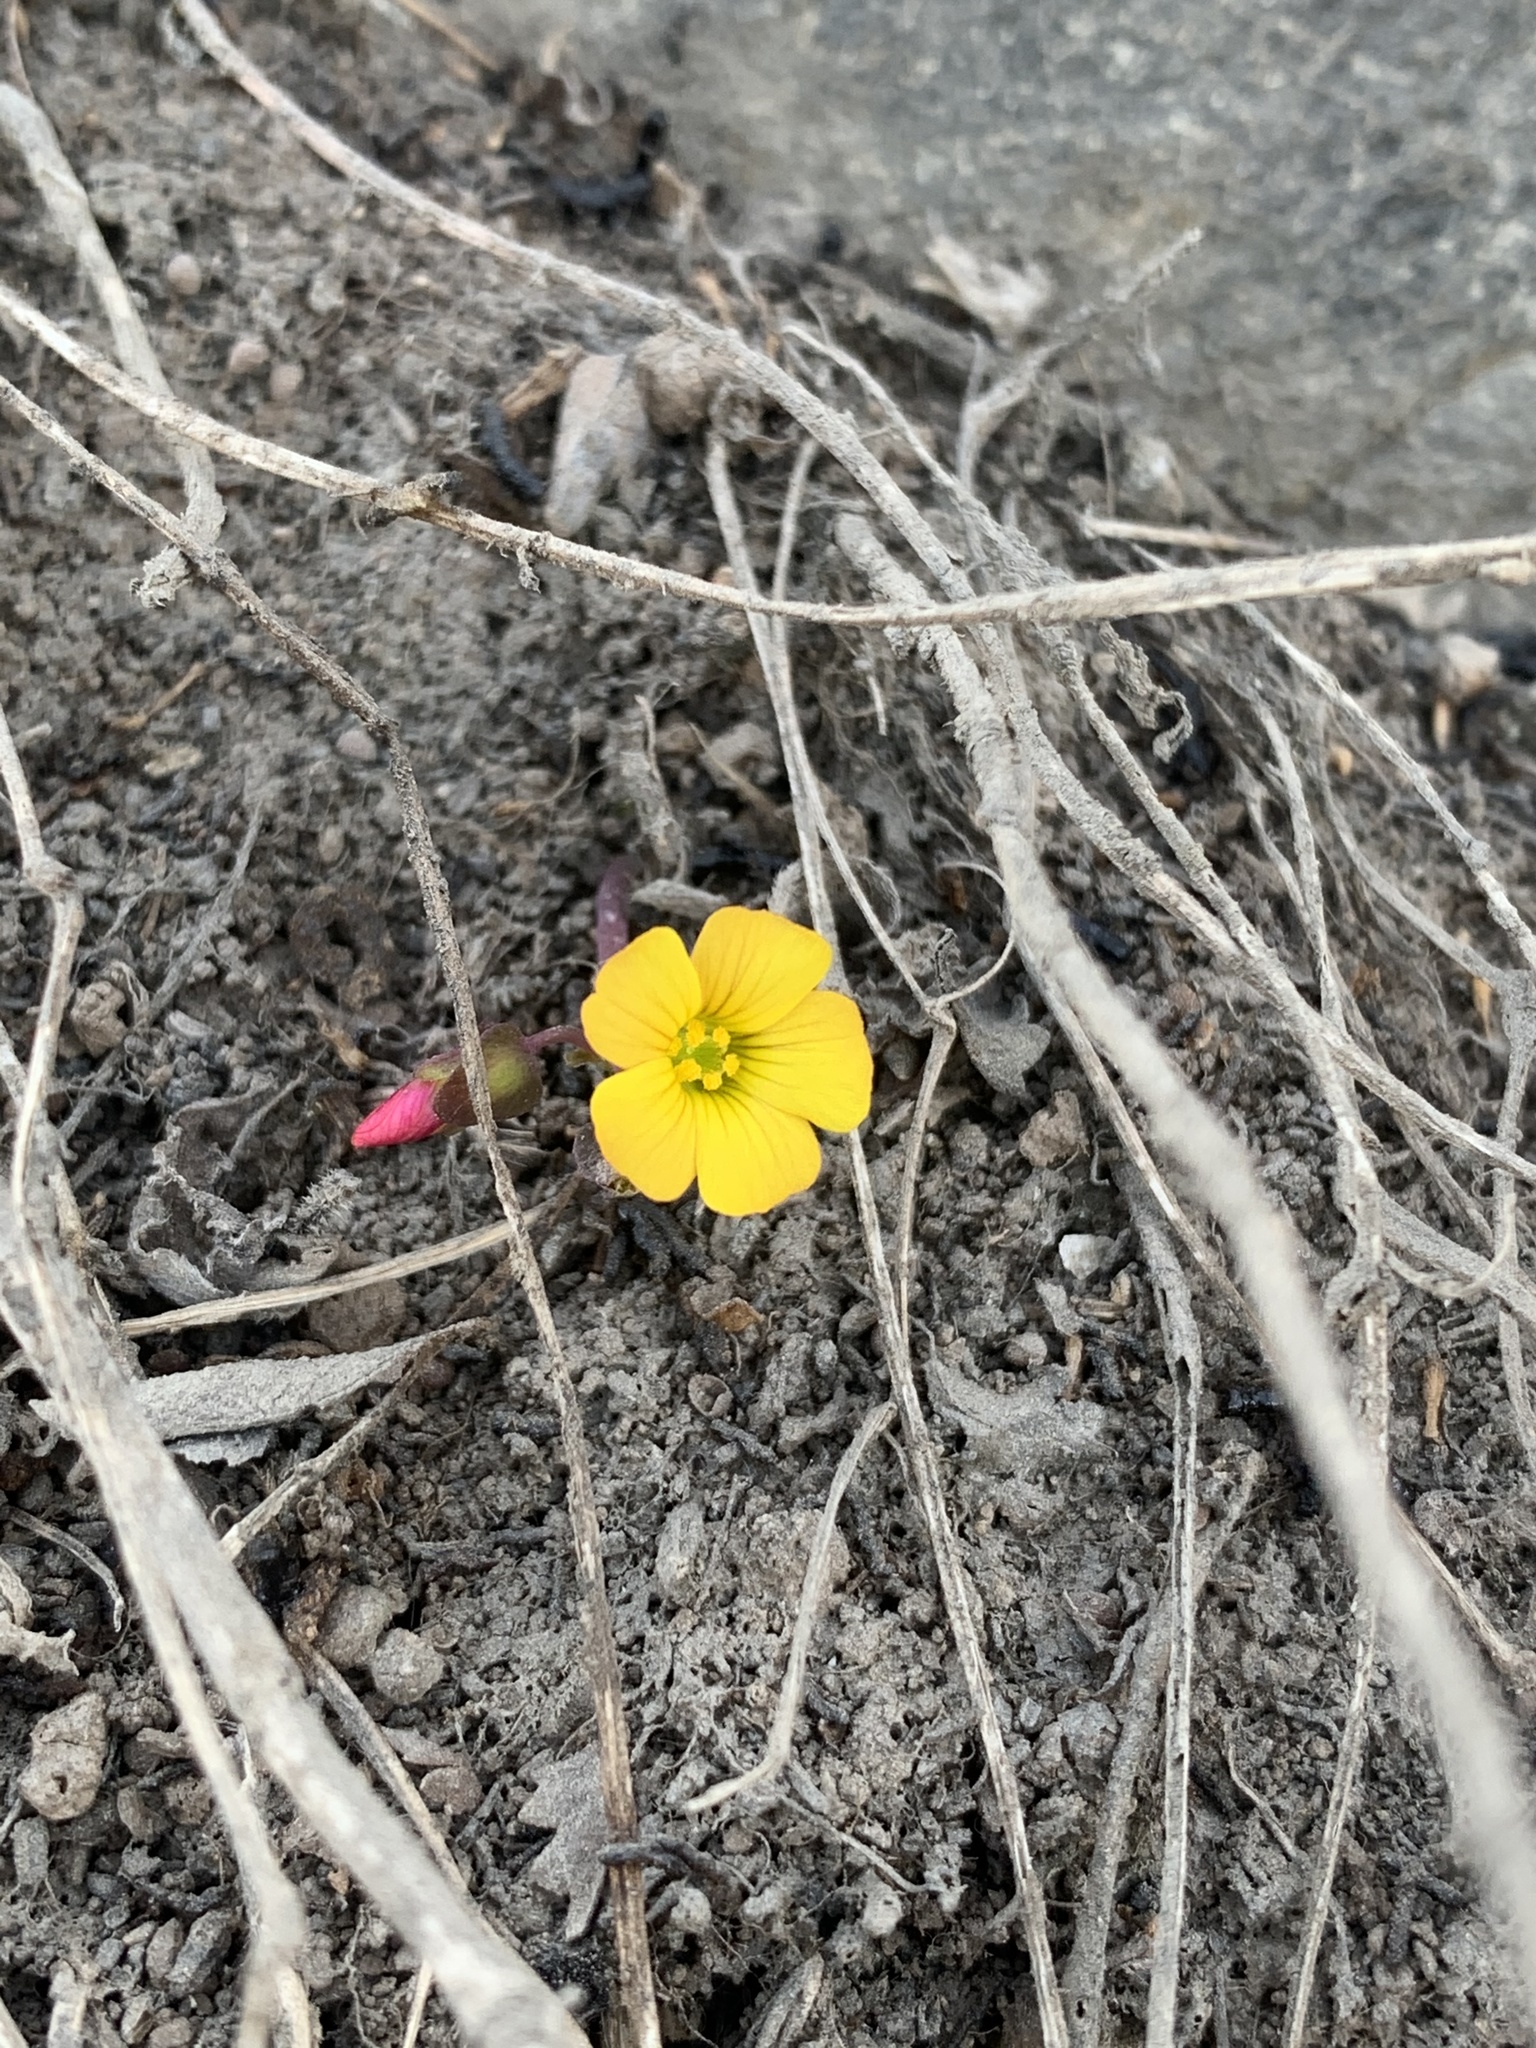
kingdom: Plantae
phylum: Tracheophyta
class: Magnoliopsida
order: Oxalidales
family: Oxalidaceae
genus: Oxalis
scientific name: Oxalis megalorrhiza
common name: Fleshy yellow-sorrel
